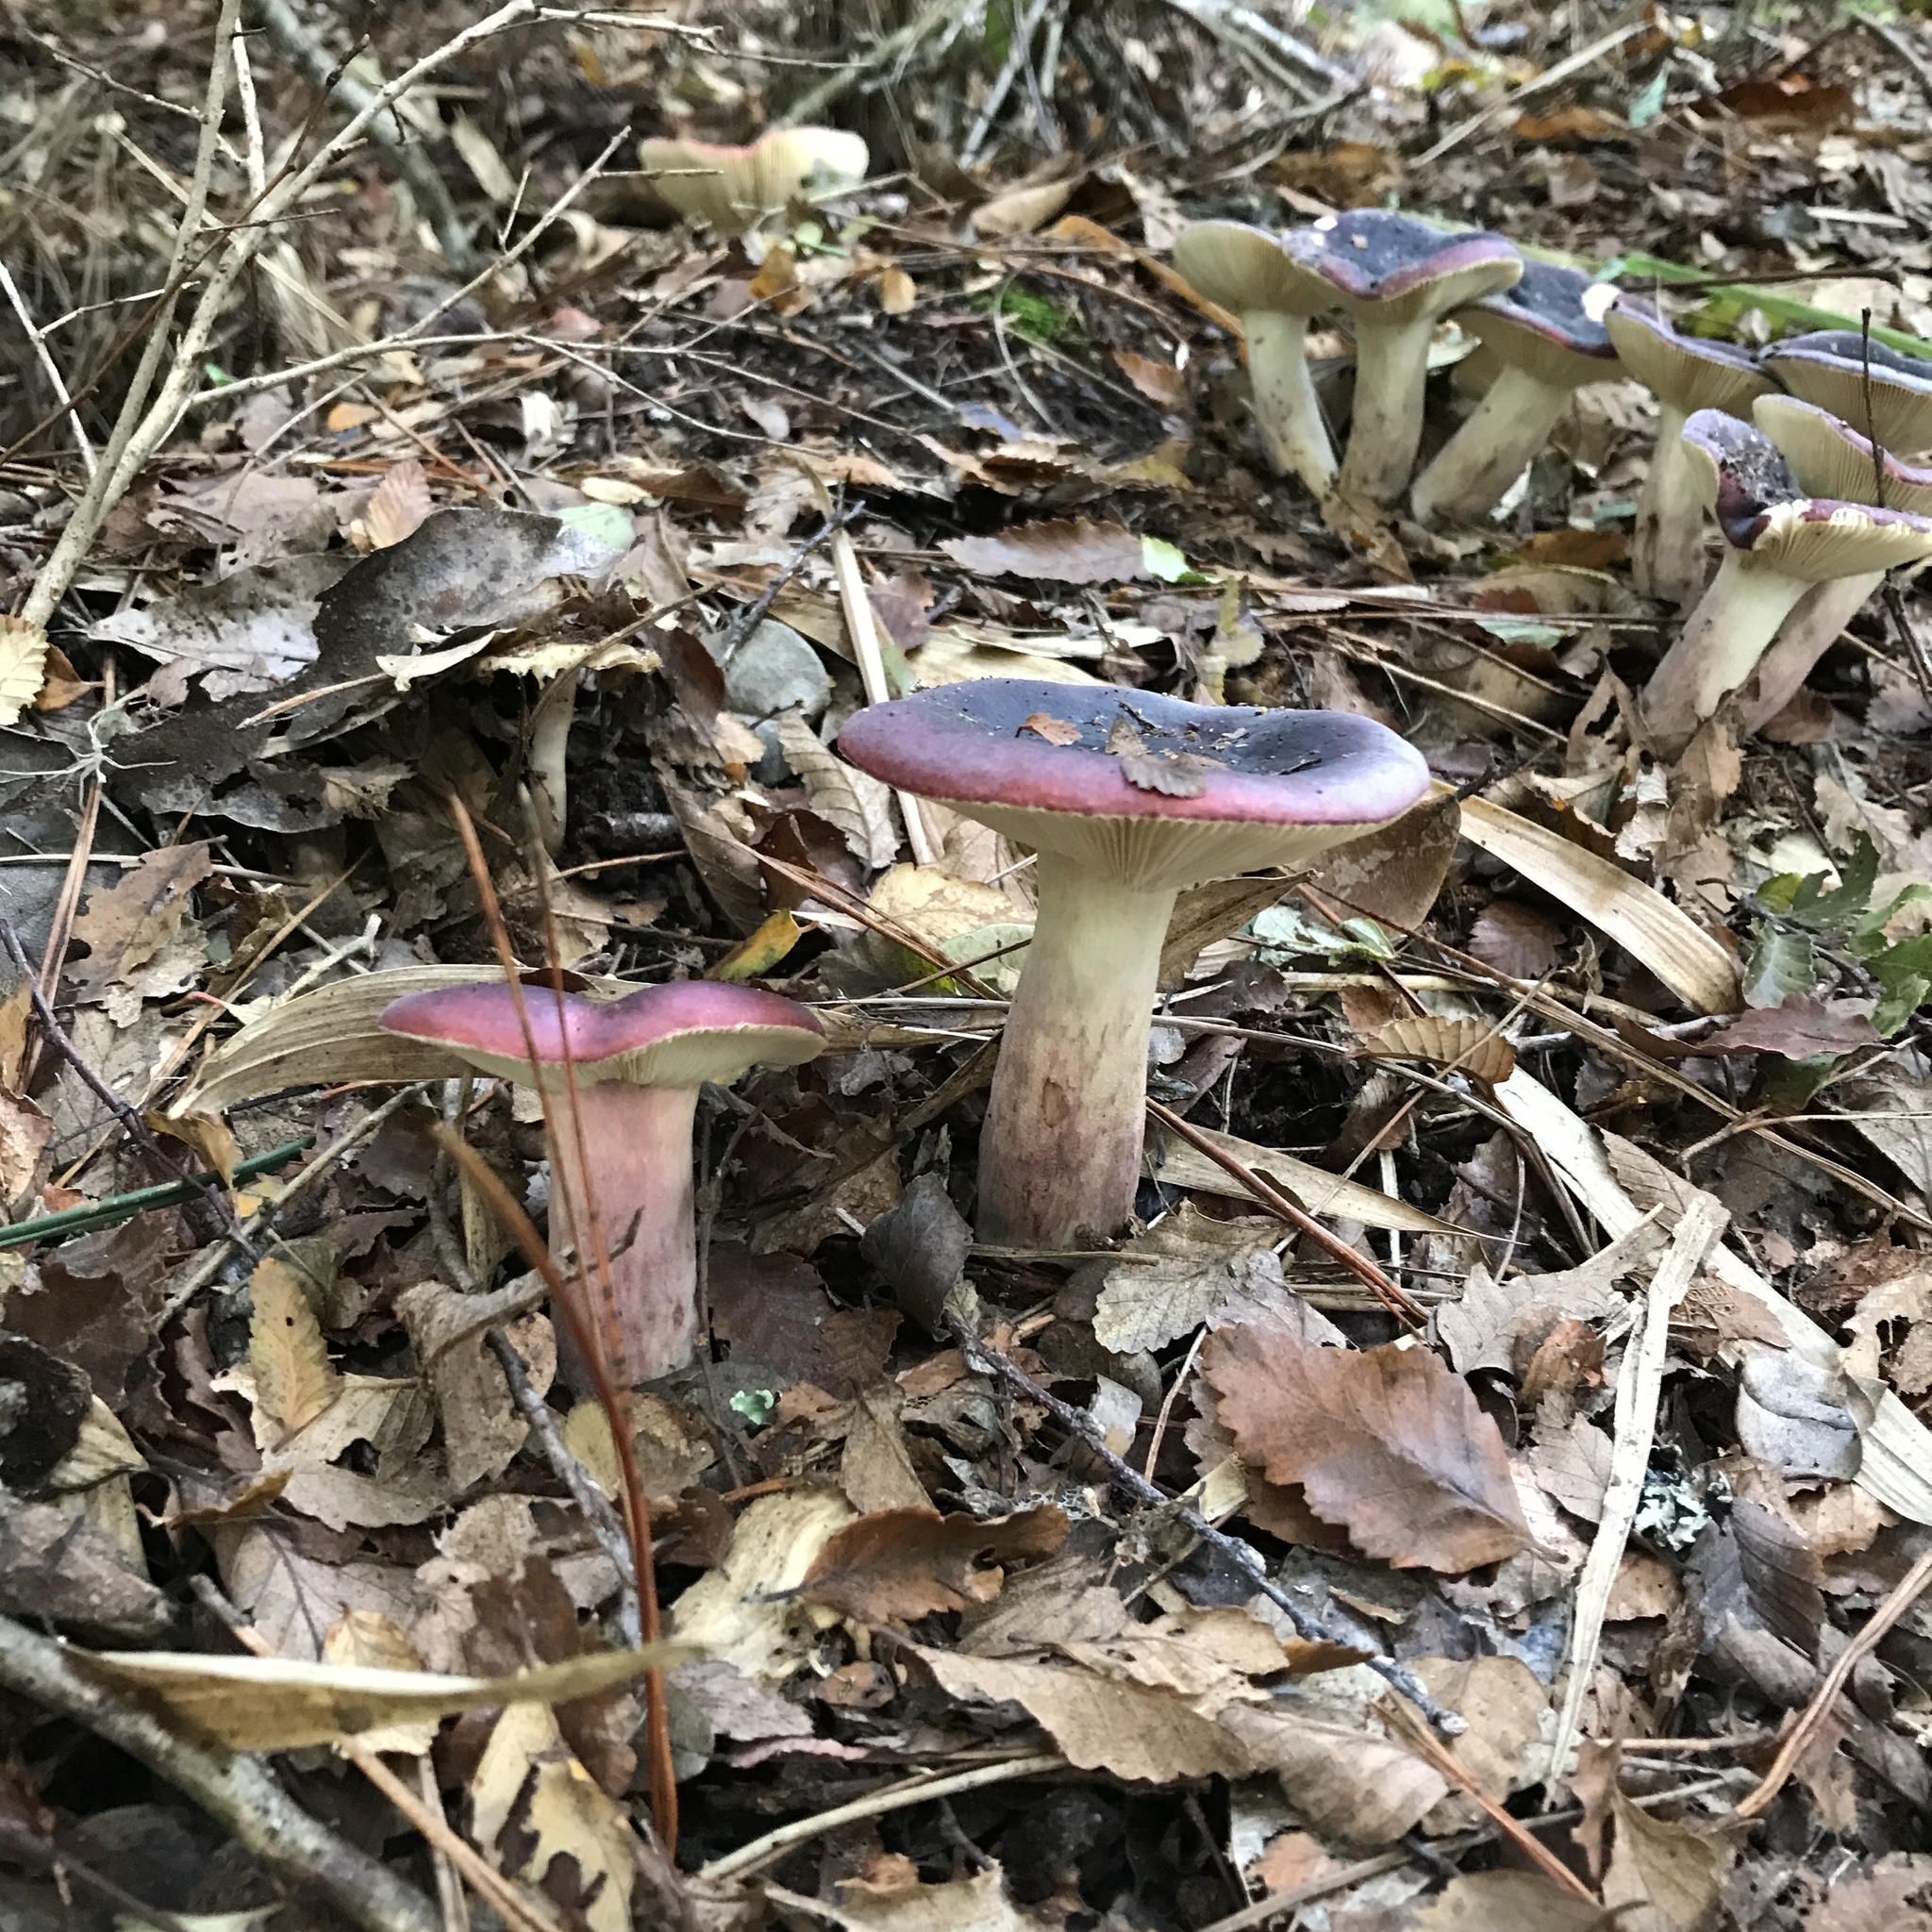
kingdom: Fungi
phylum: Basidiomycota
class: Agaricomycetes
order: Russulales
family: Russulaceae
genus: Russula
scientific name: Russula sardonia
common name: Primrose brittlegill
